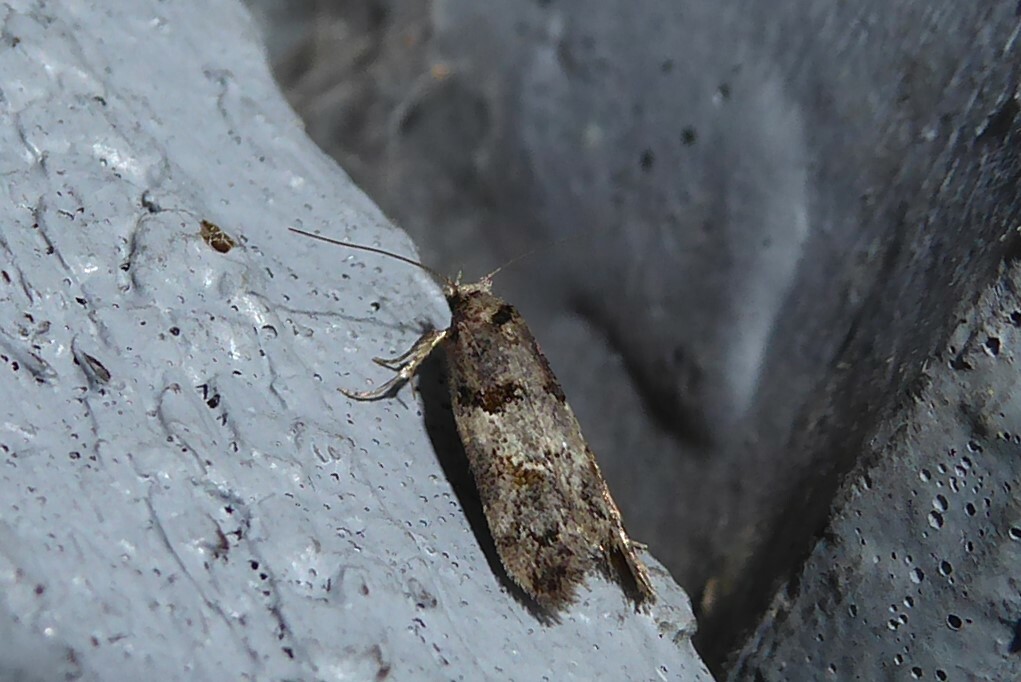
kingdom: Animalia
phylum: Arthropoda
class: Insecta
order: Lepidoptera
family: Oecophoridae
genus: Trachypepla
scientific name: Trachypepla contritella
